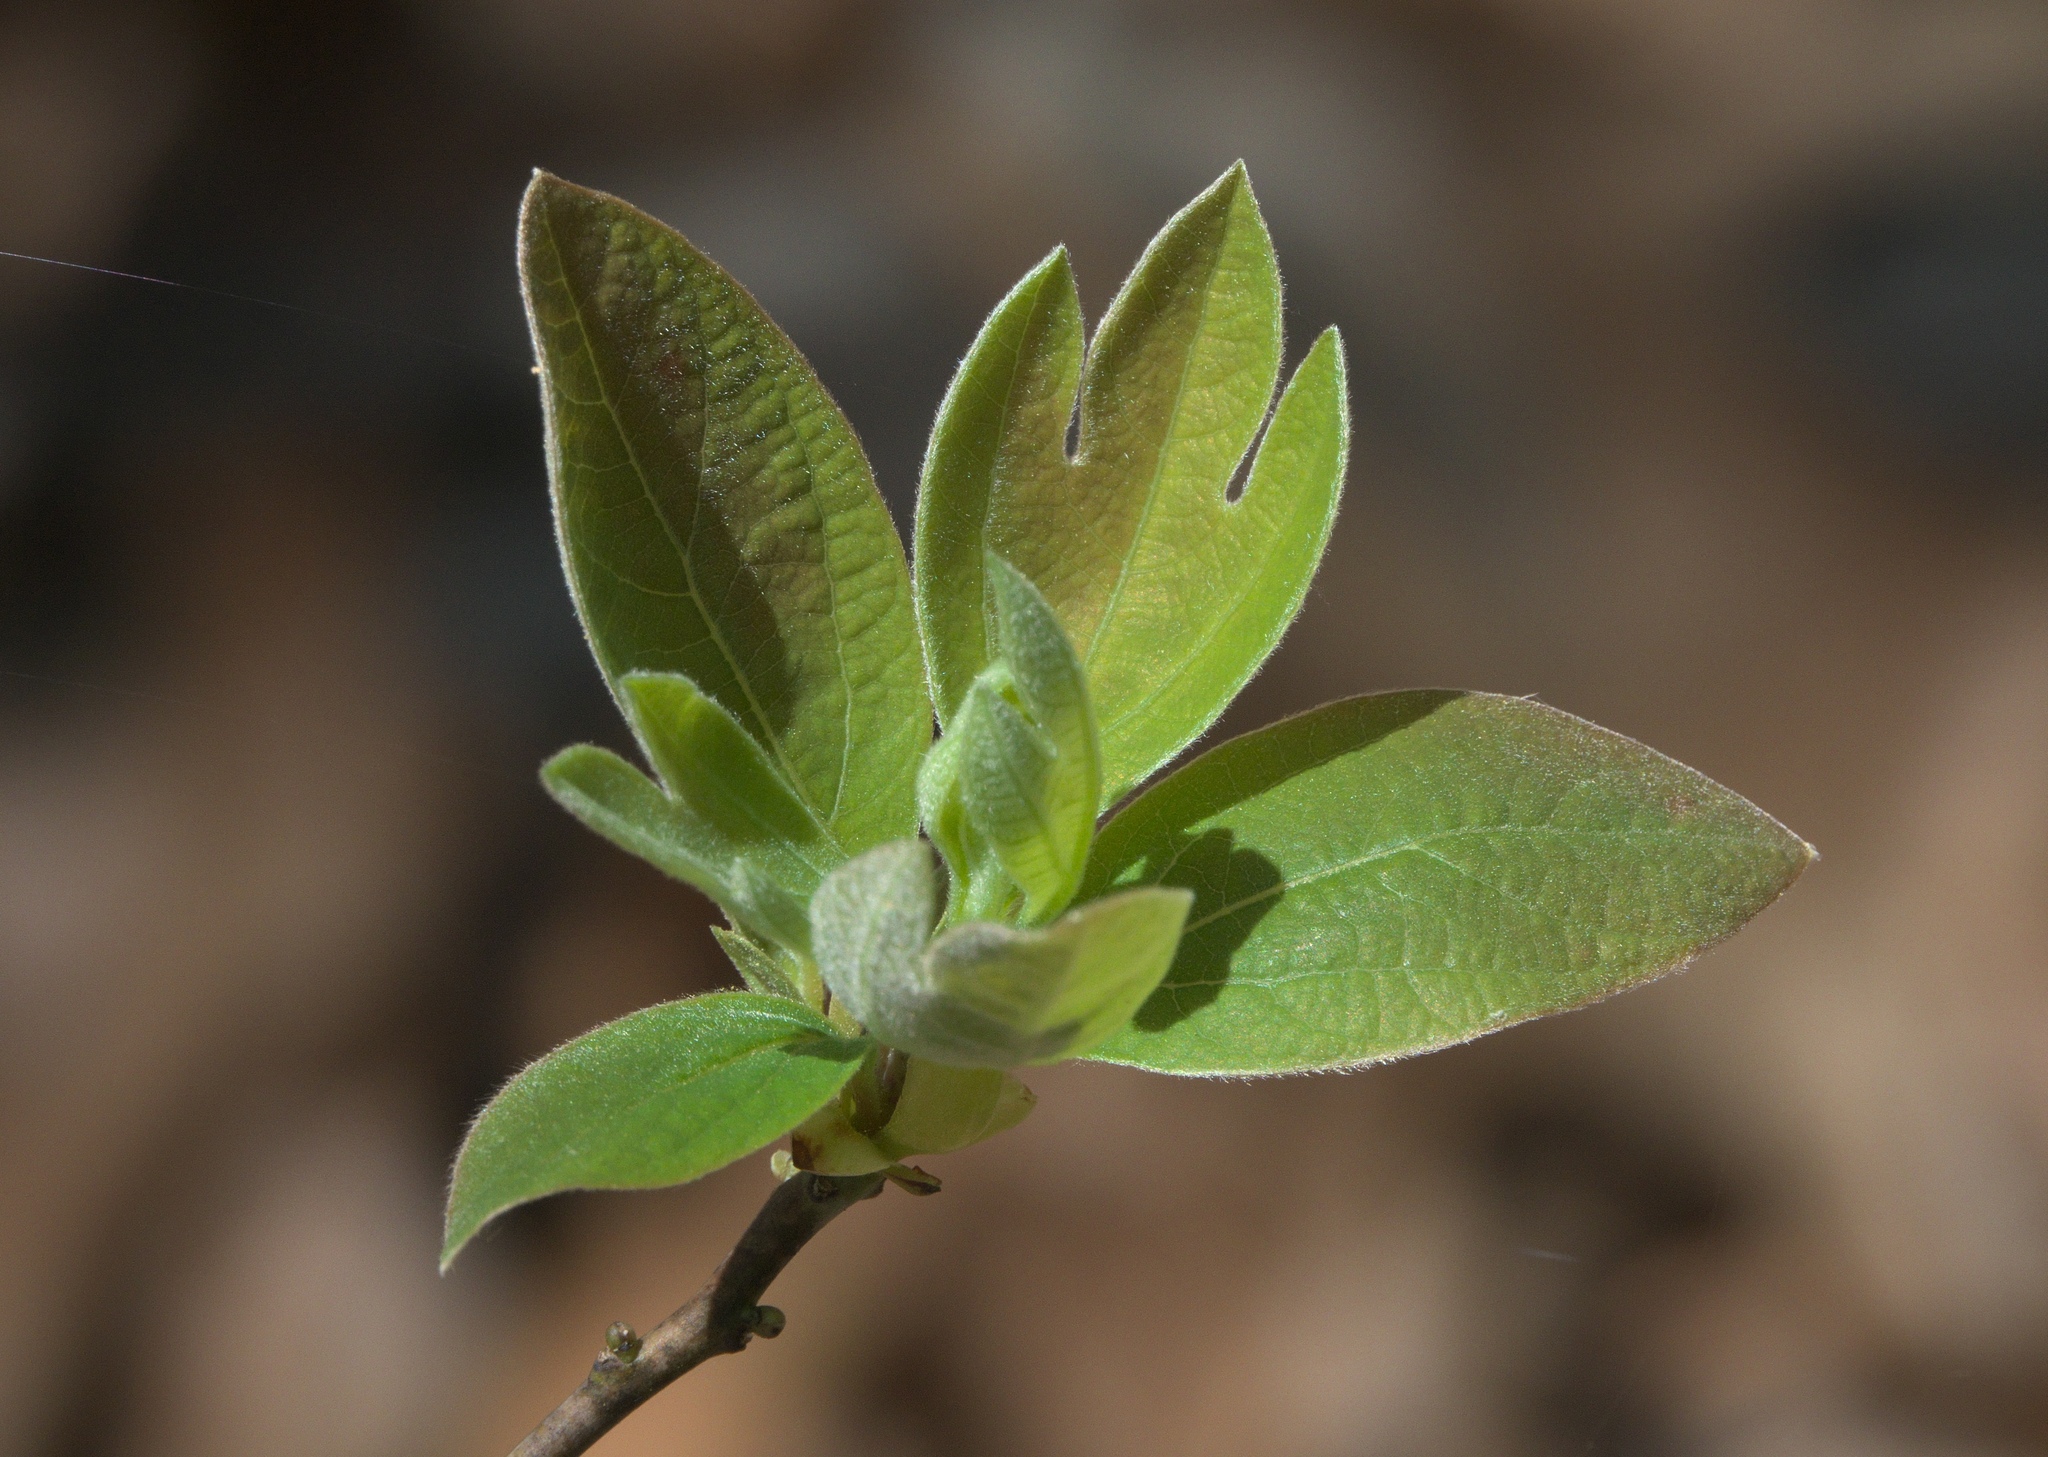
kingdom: Plantae
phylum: Tracheophyta
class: Magnoliopsida
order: Laurales
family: Lauraceae
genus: Sassafras
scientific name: Sassafras albidum
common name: Sassafras
